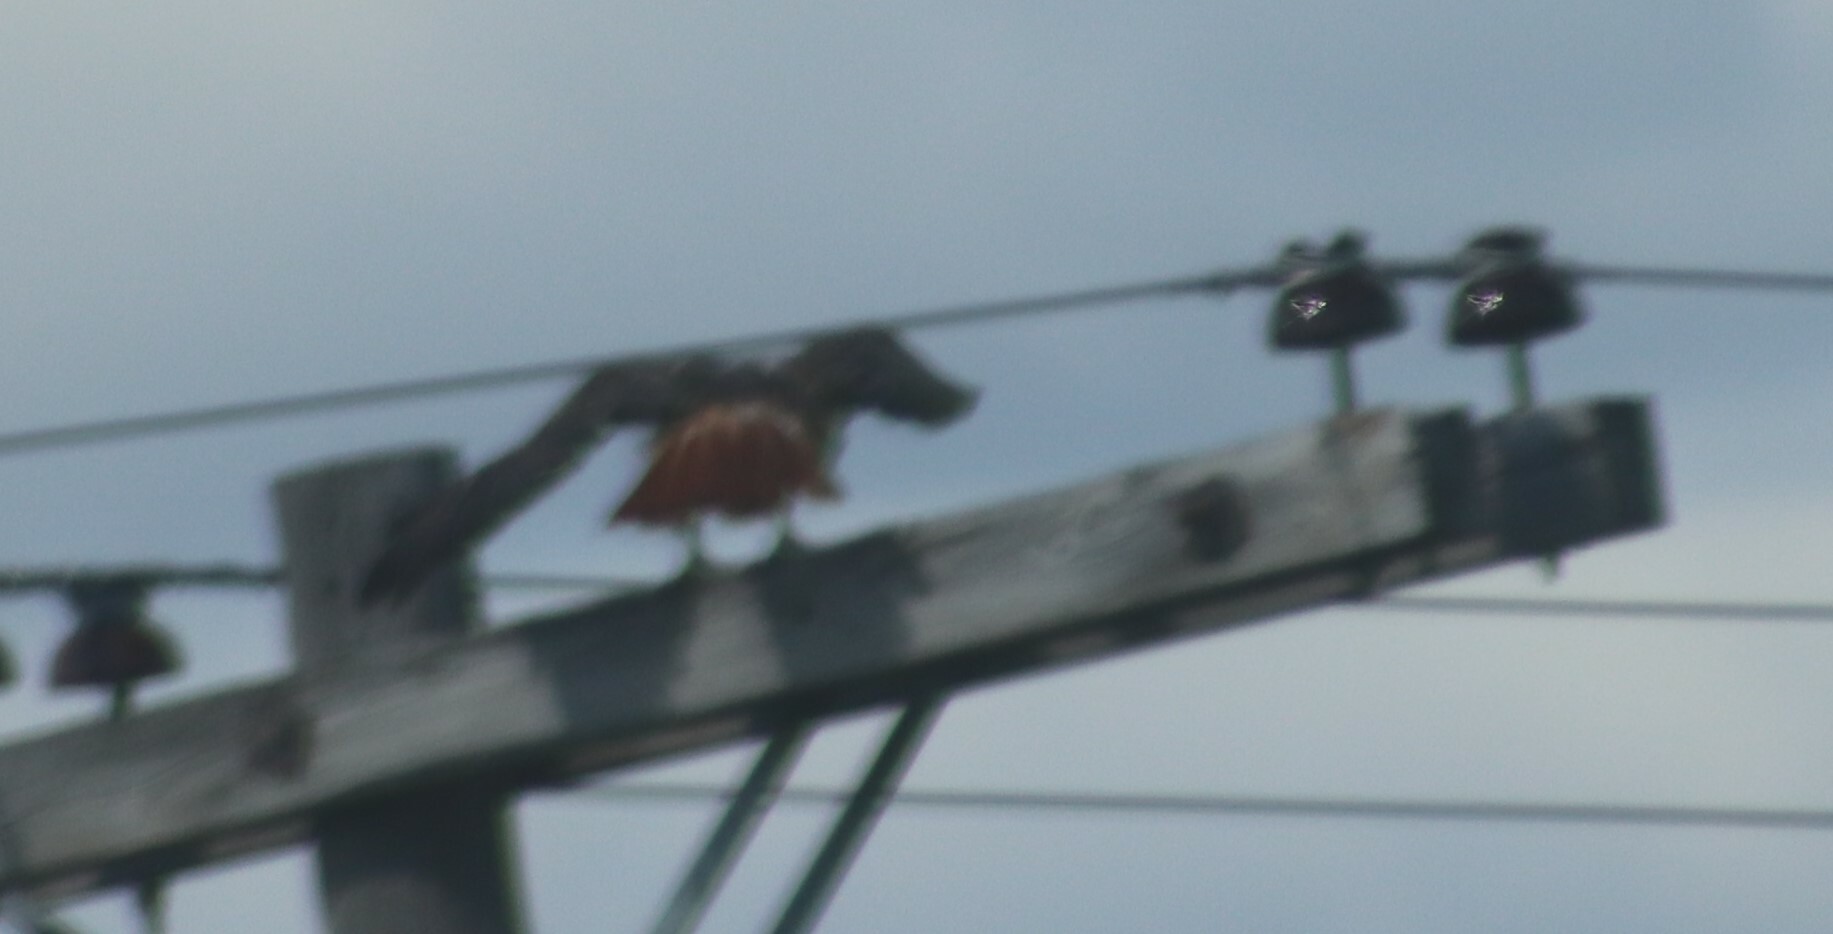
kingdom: Animalia
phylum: Chordata
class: Aves
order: Accipitriformes
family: Accipitridae
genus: Buteo
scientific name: Buteo jamaicensis
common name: Red-tailed hawk
